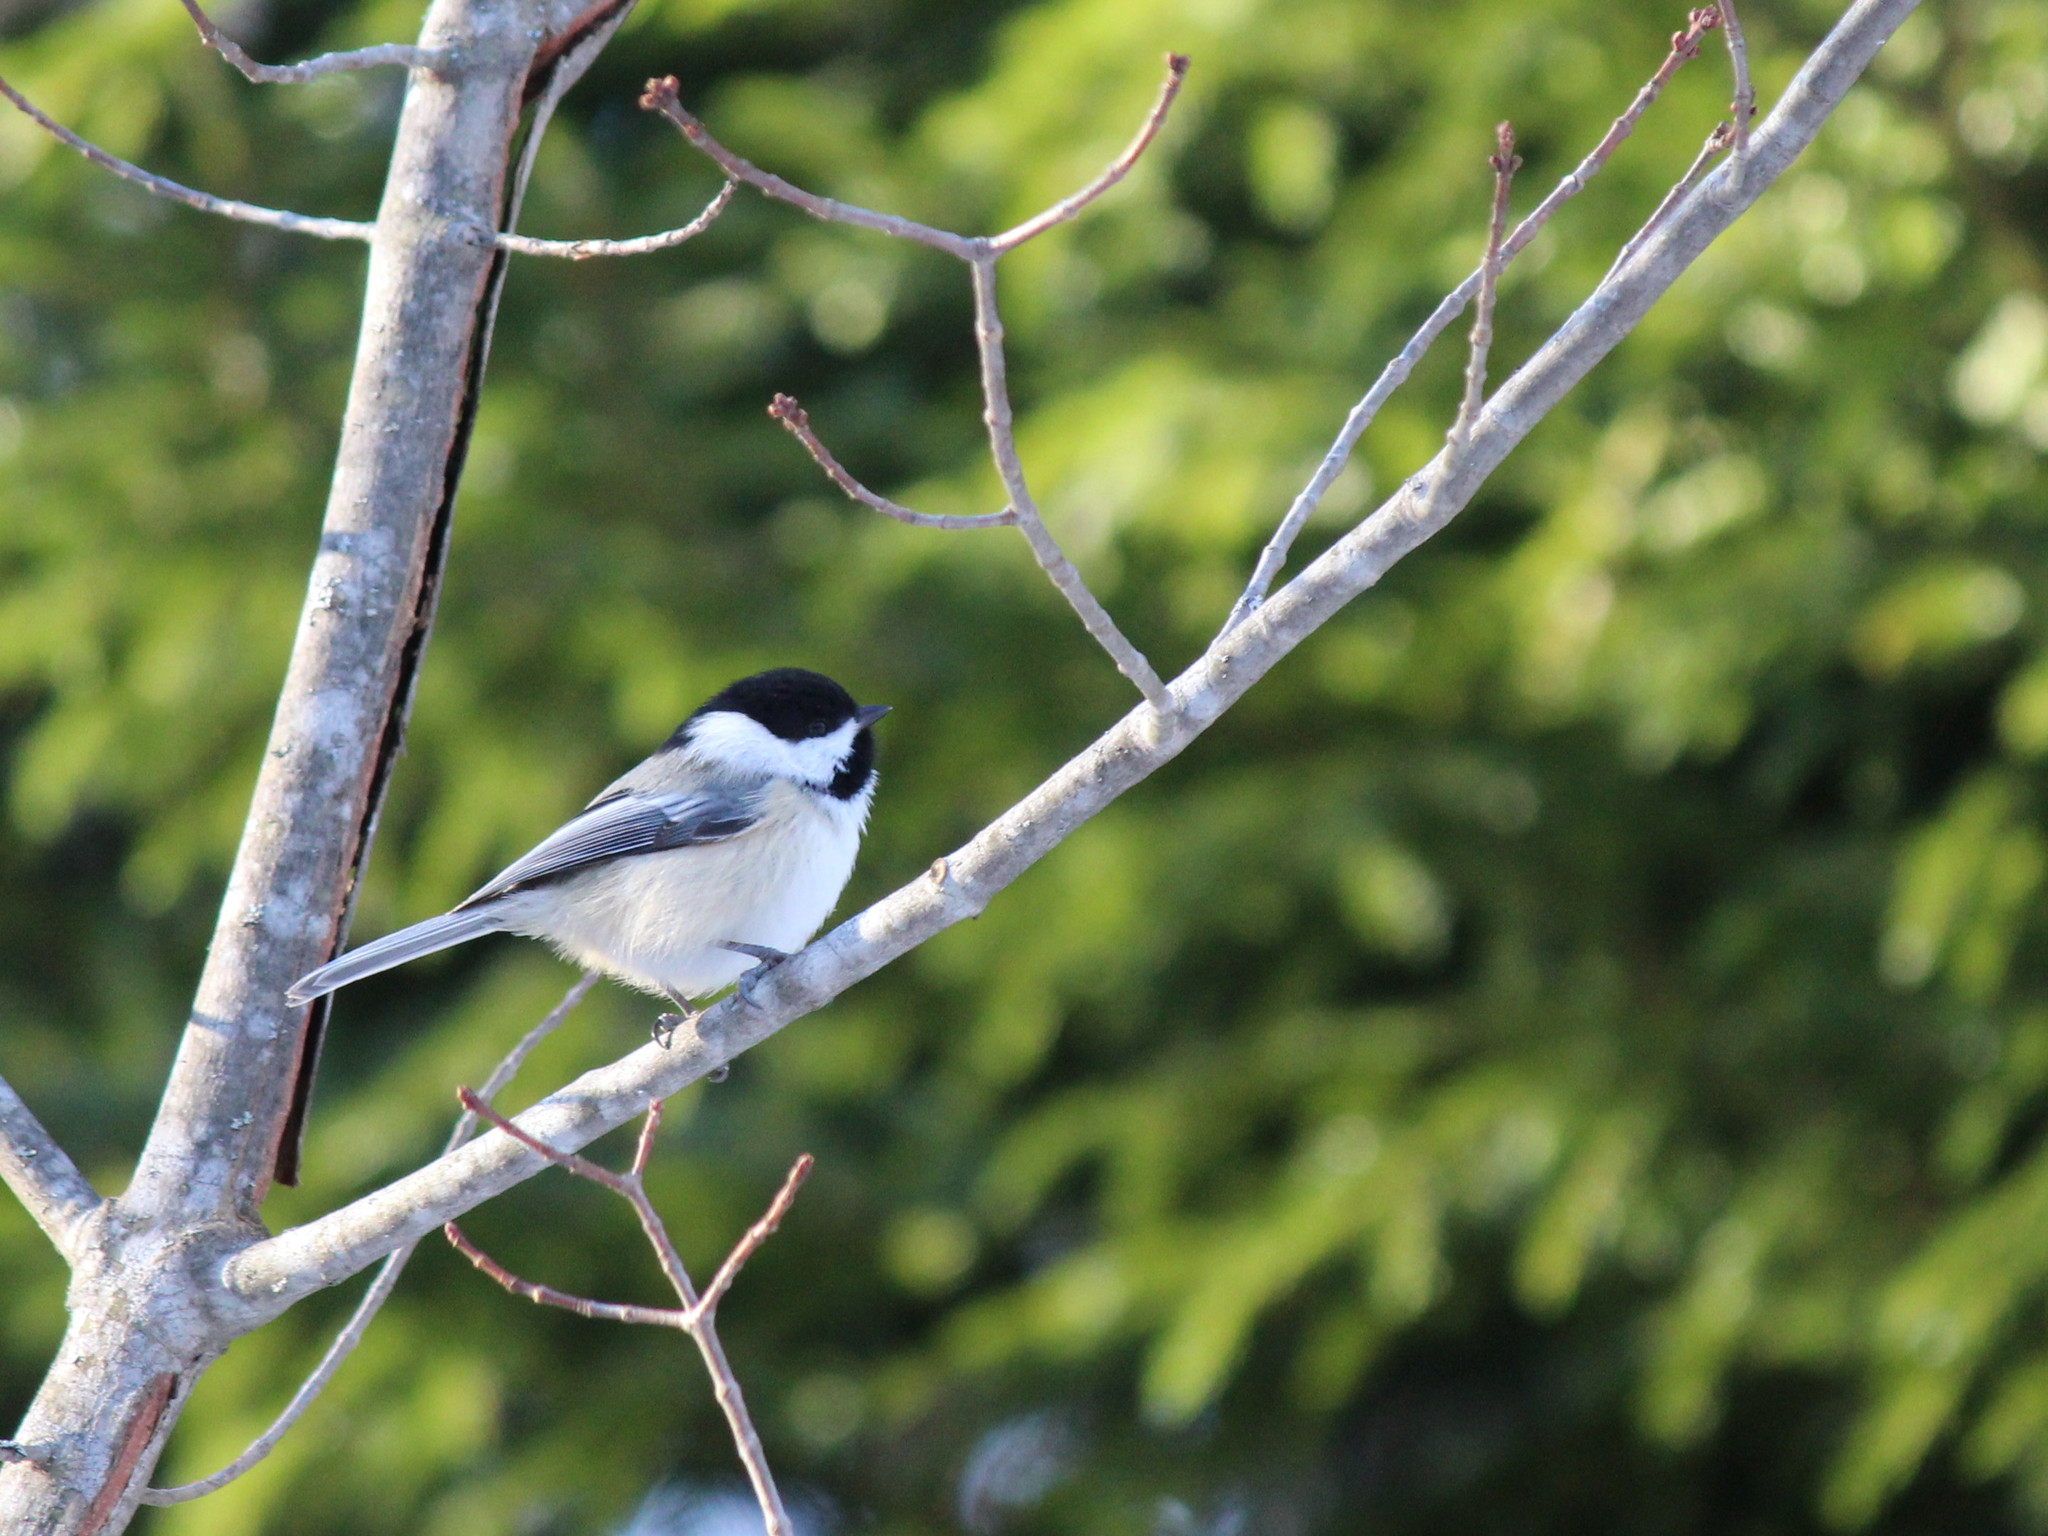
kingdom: Animalia
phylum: Chordata
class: Aves
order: Passeriformes
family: Paridae
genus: Poecile
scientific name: Poecile atricapillus
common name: Black-capped chickadee
